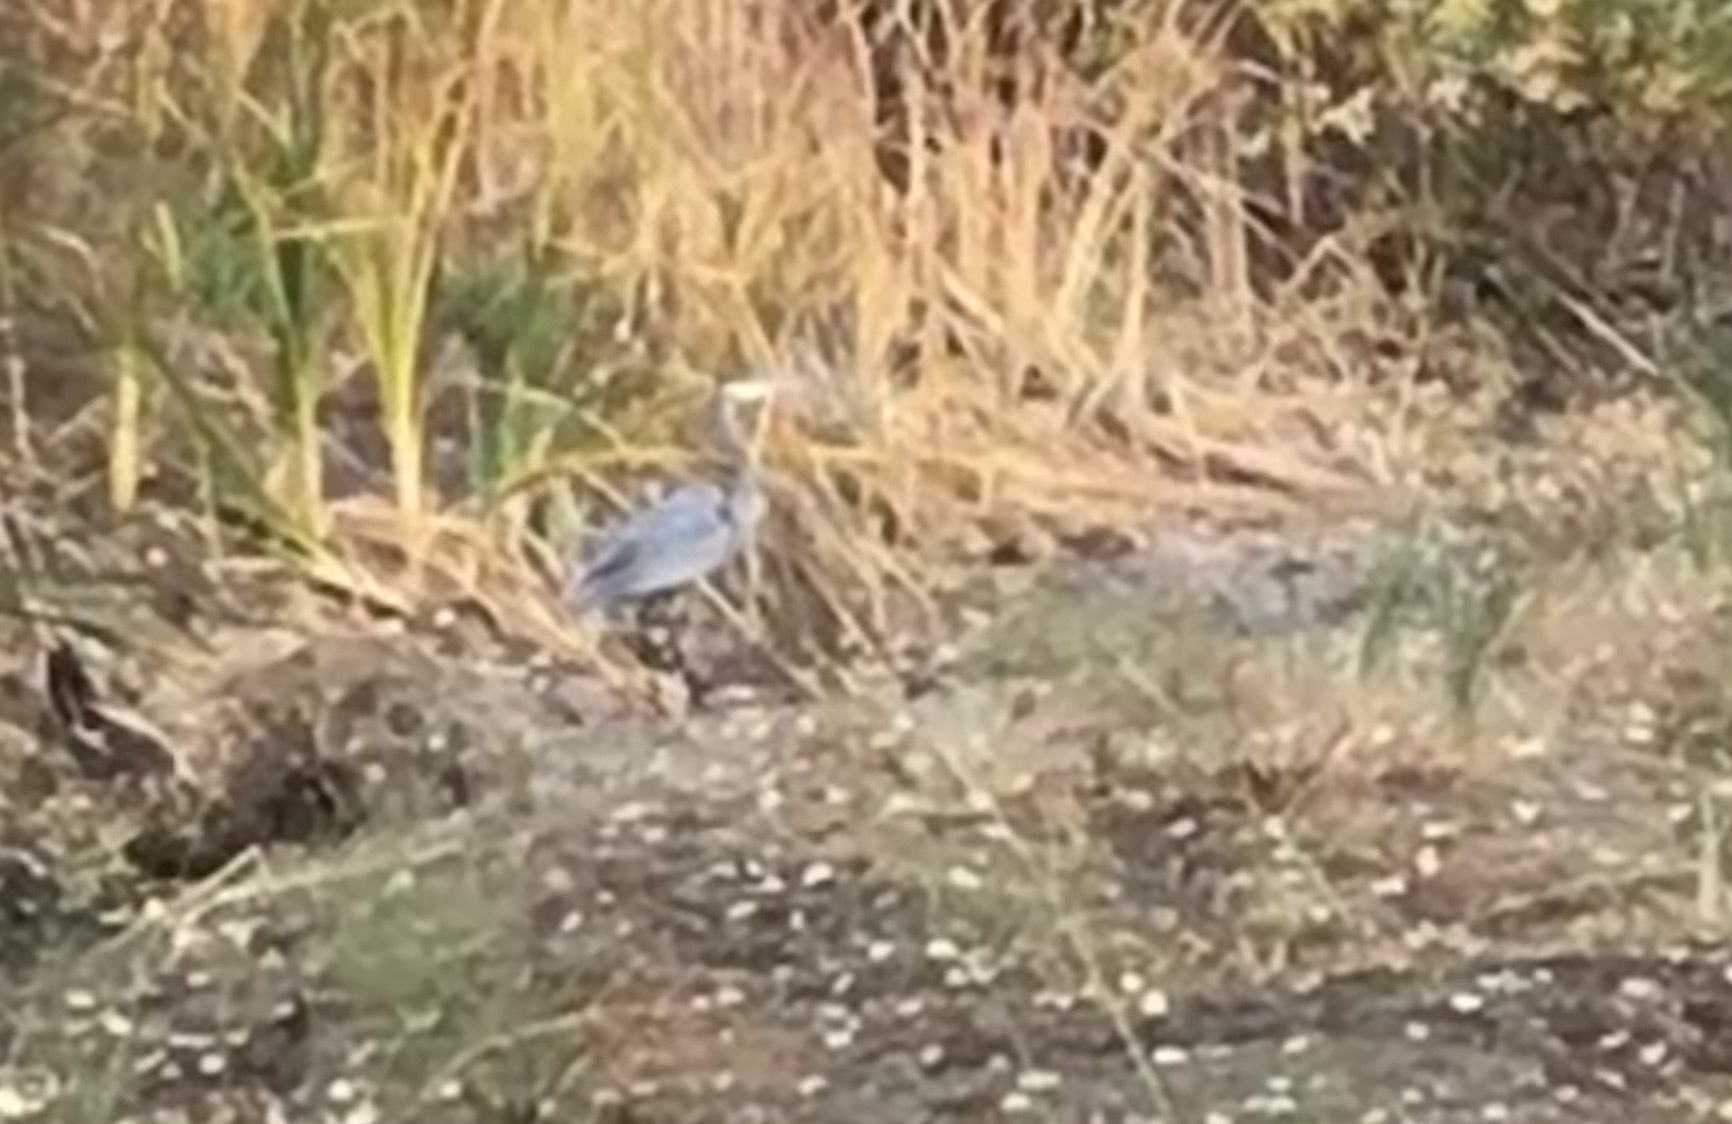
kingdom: Animalia
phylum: Chordata
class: Aves
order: Pelecaniformes
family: Ardeidae
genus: Ardea
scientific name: Ardea herodias
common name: Great blue heron
